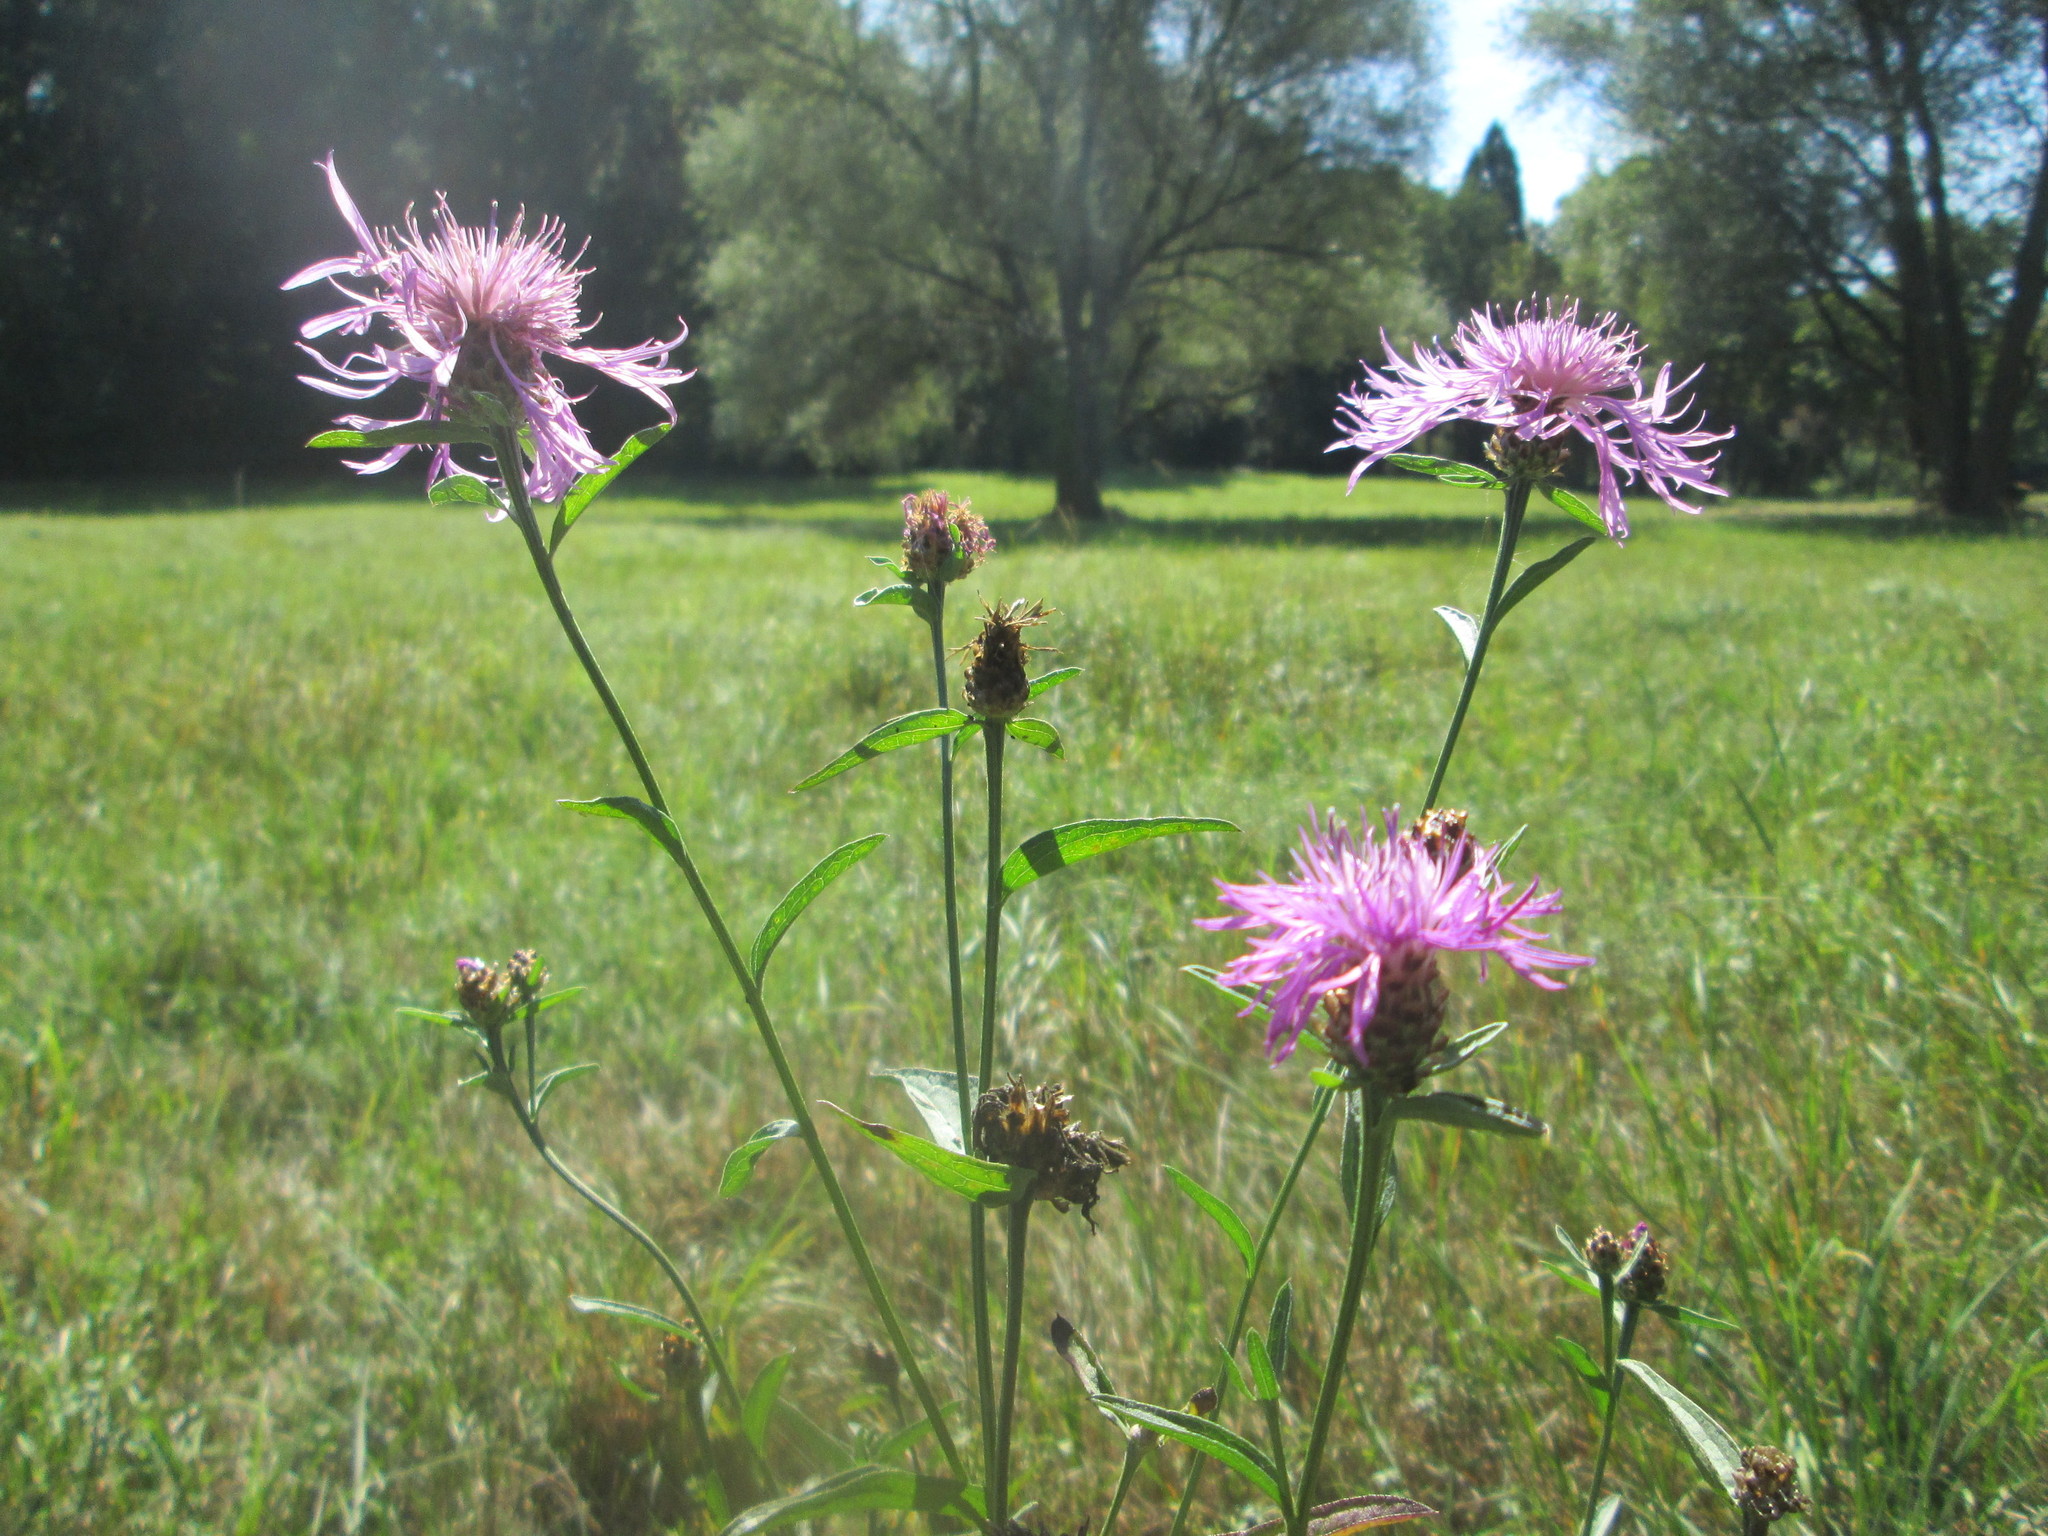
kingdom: Plantae
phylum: Tracheophyta
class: Magnoliopsida
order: Asterales
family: Asteraceae
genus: Centaurea
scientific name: Centaurea jacea
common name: Brown knapweed
